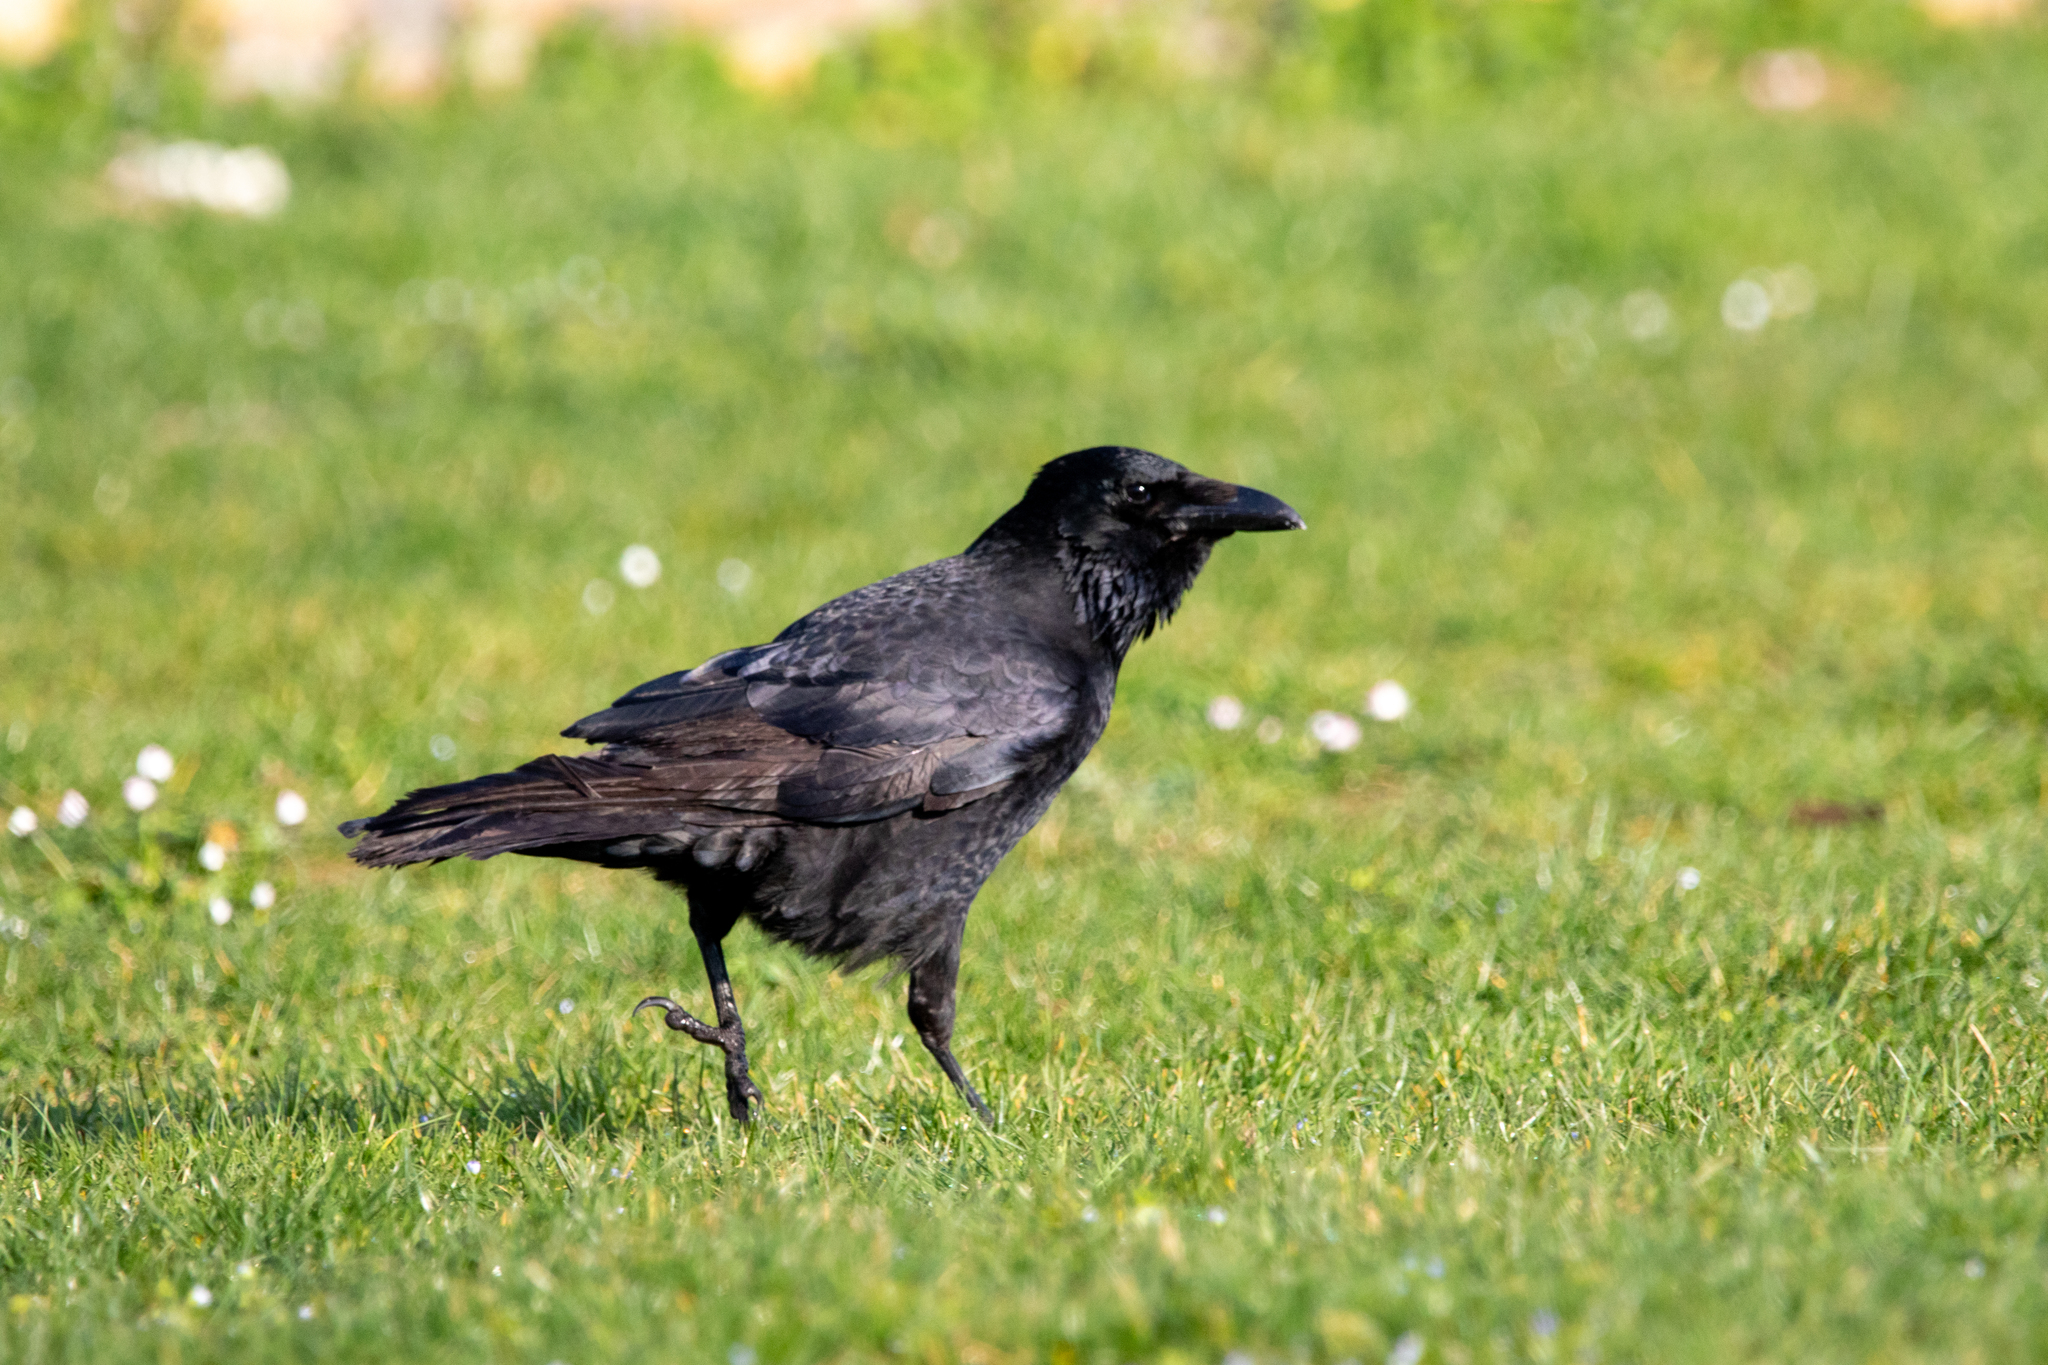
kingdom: Animalia
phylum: Chordata
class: Aves
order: Passeriformes
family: Corvidae
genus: Corvus
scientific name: Corvus corone
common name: Carrion crow
